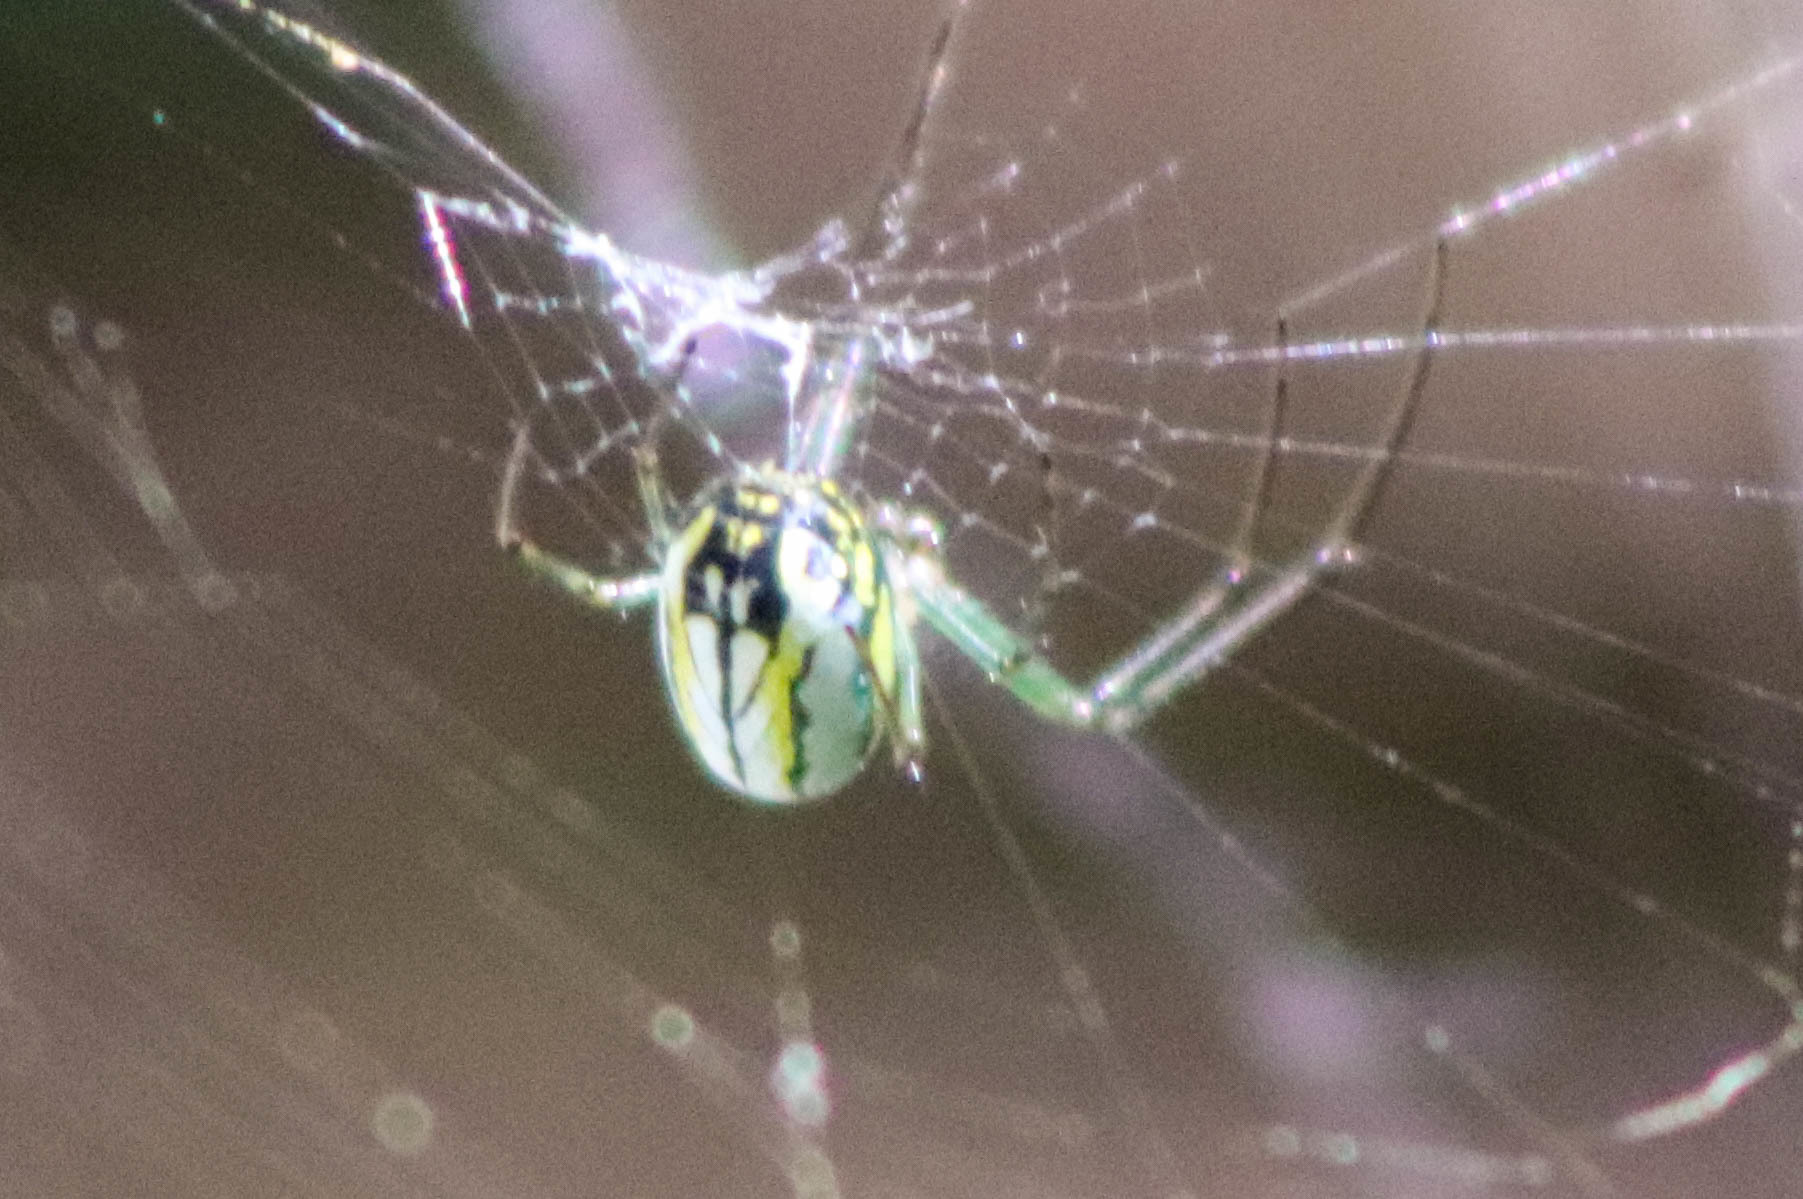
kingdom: Animalia
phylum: Arthropoda
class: Arachnida
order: Araneae
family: Tetragnathidae
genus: Leucauge
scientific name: Leucauge venusta
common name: Longjawed orb weavers
